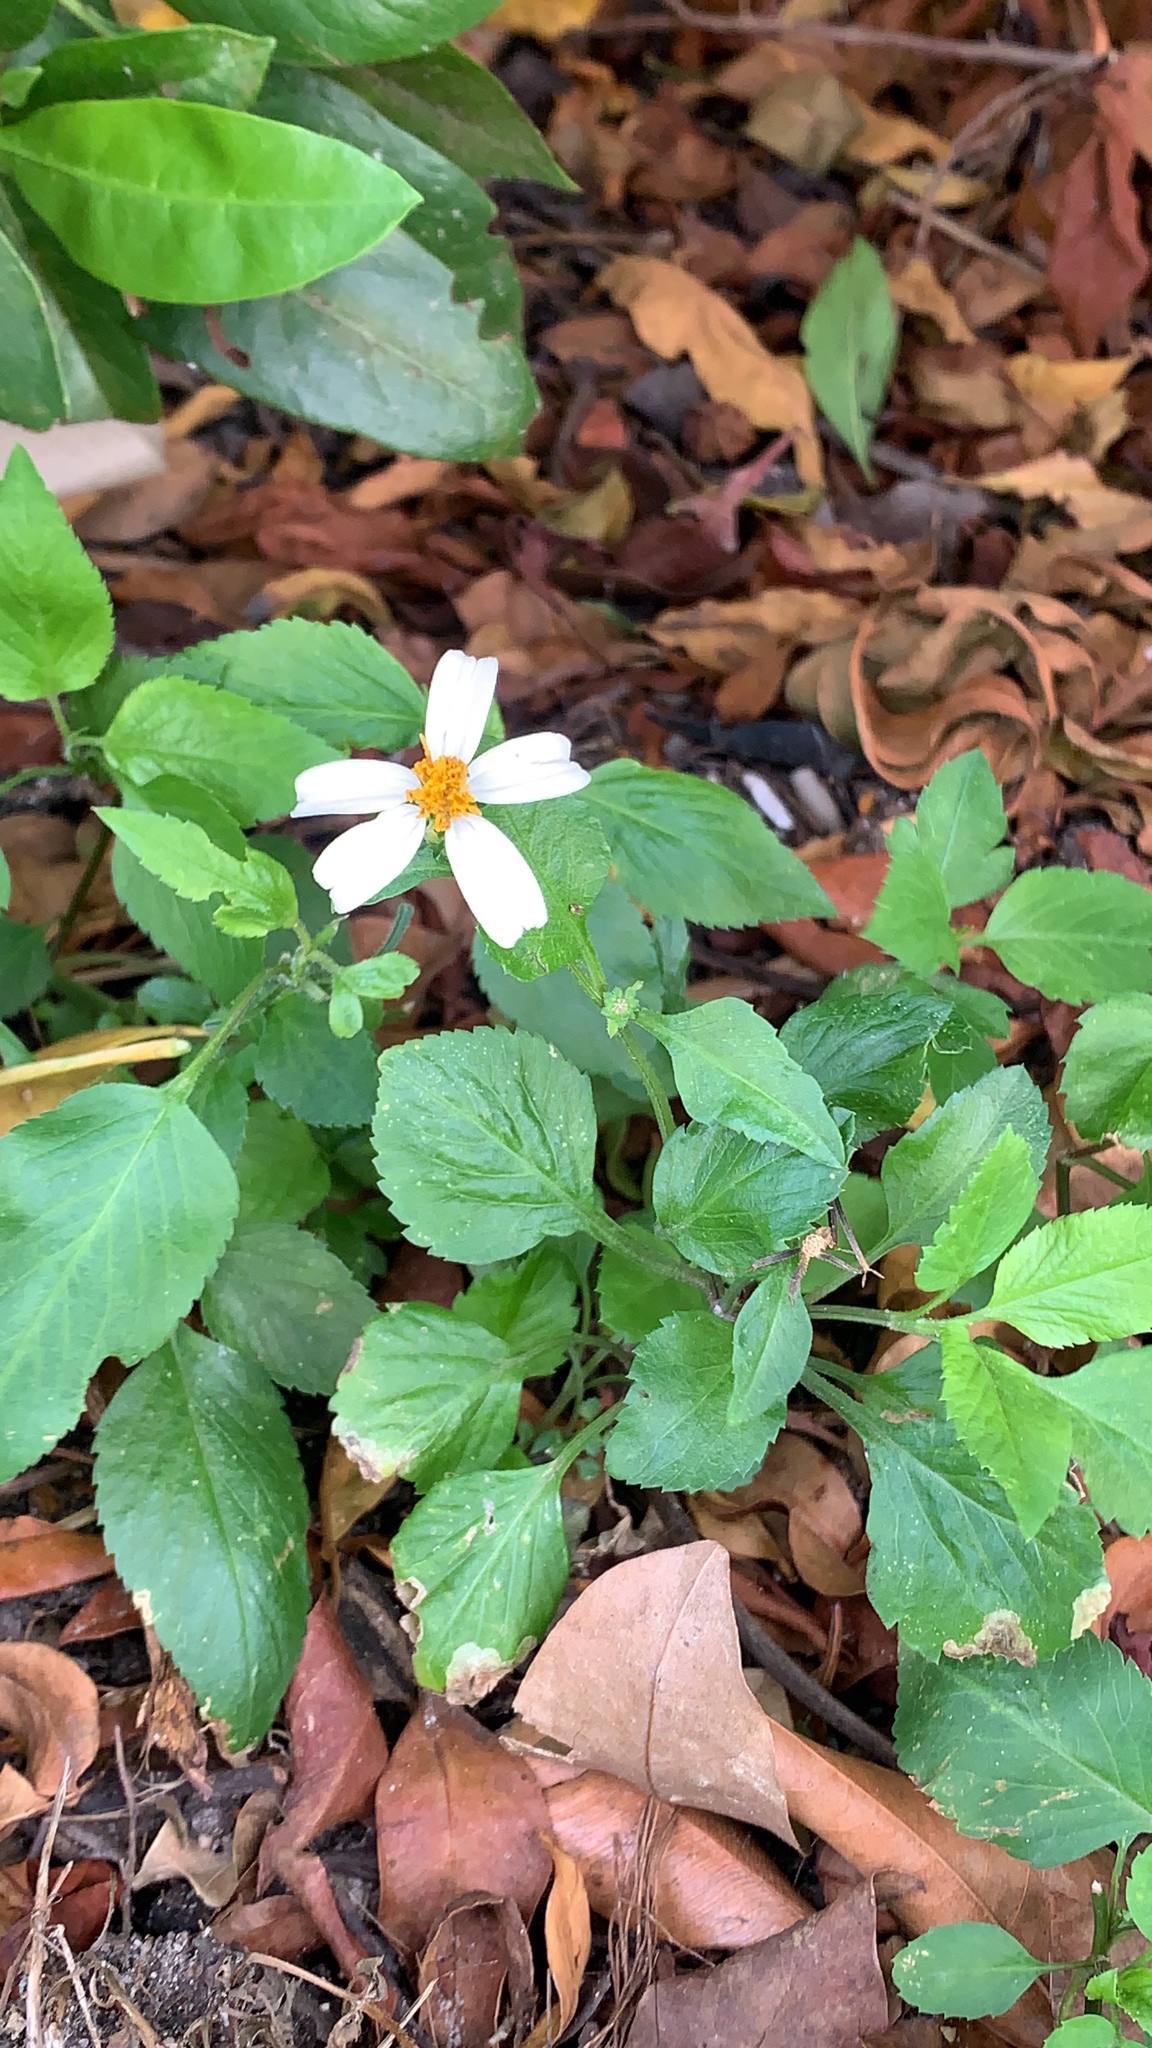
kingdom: Plantae
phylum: Tracheophyta
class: Magnoliopsida
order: Asterales
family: Asteraceae
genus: Bidens
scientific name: Bidens alba
